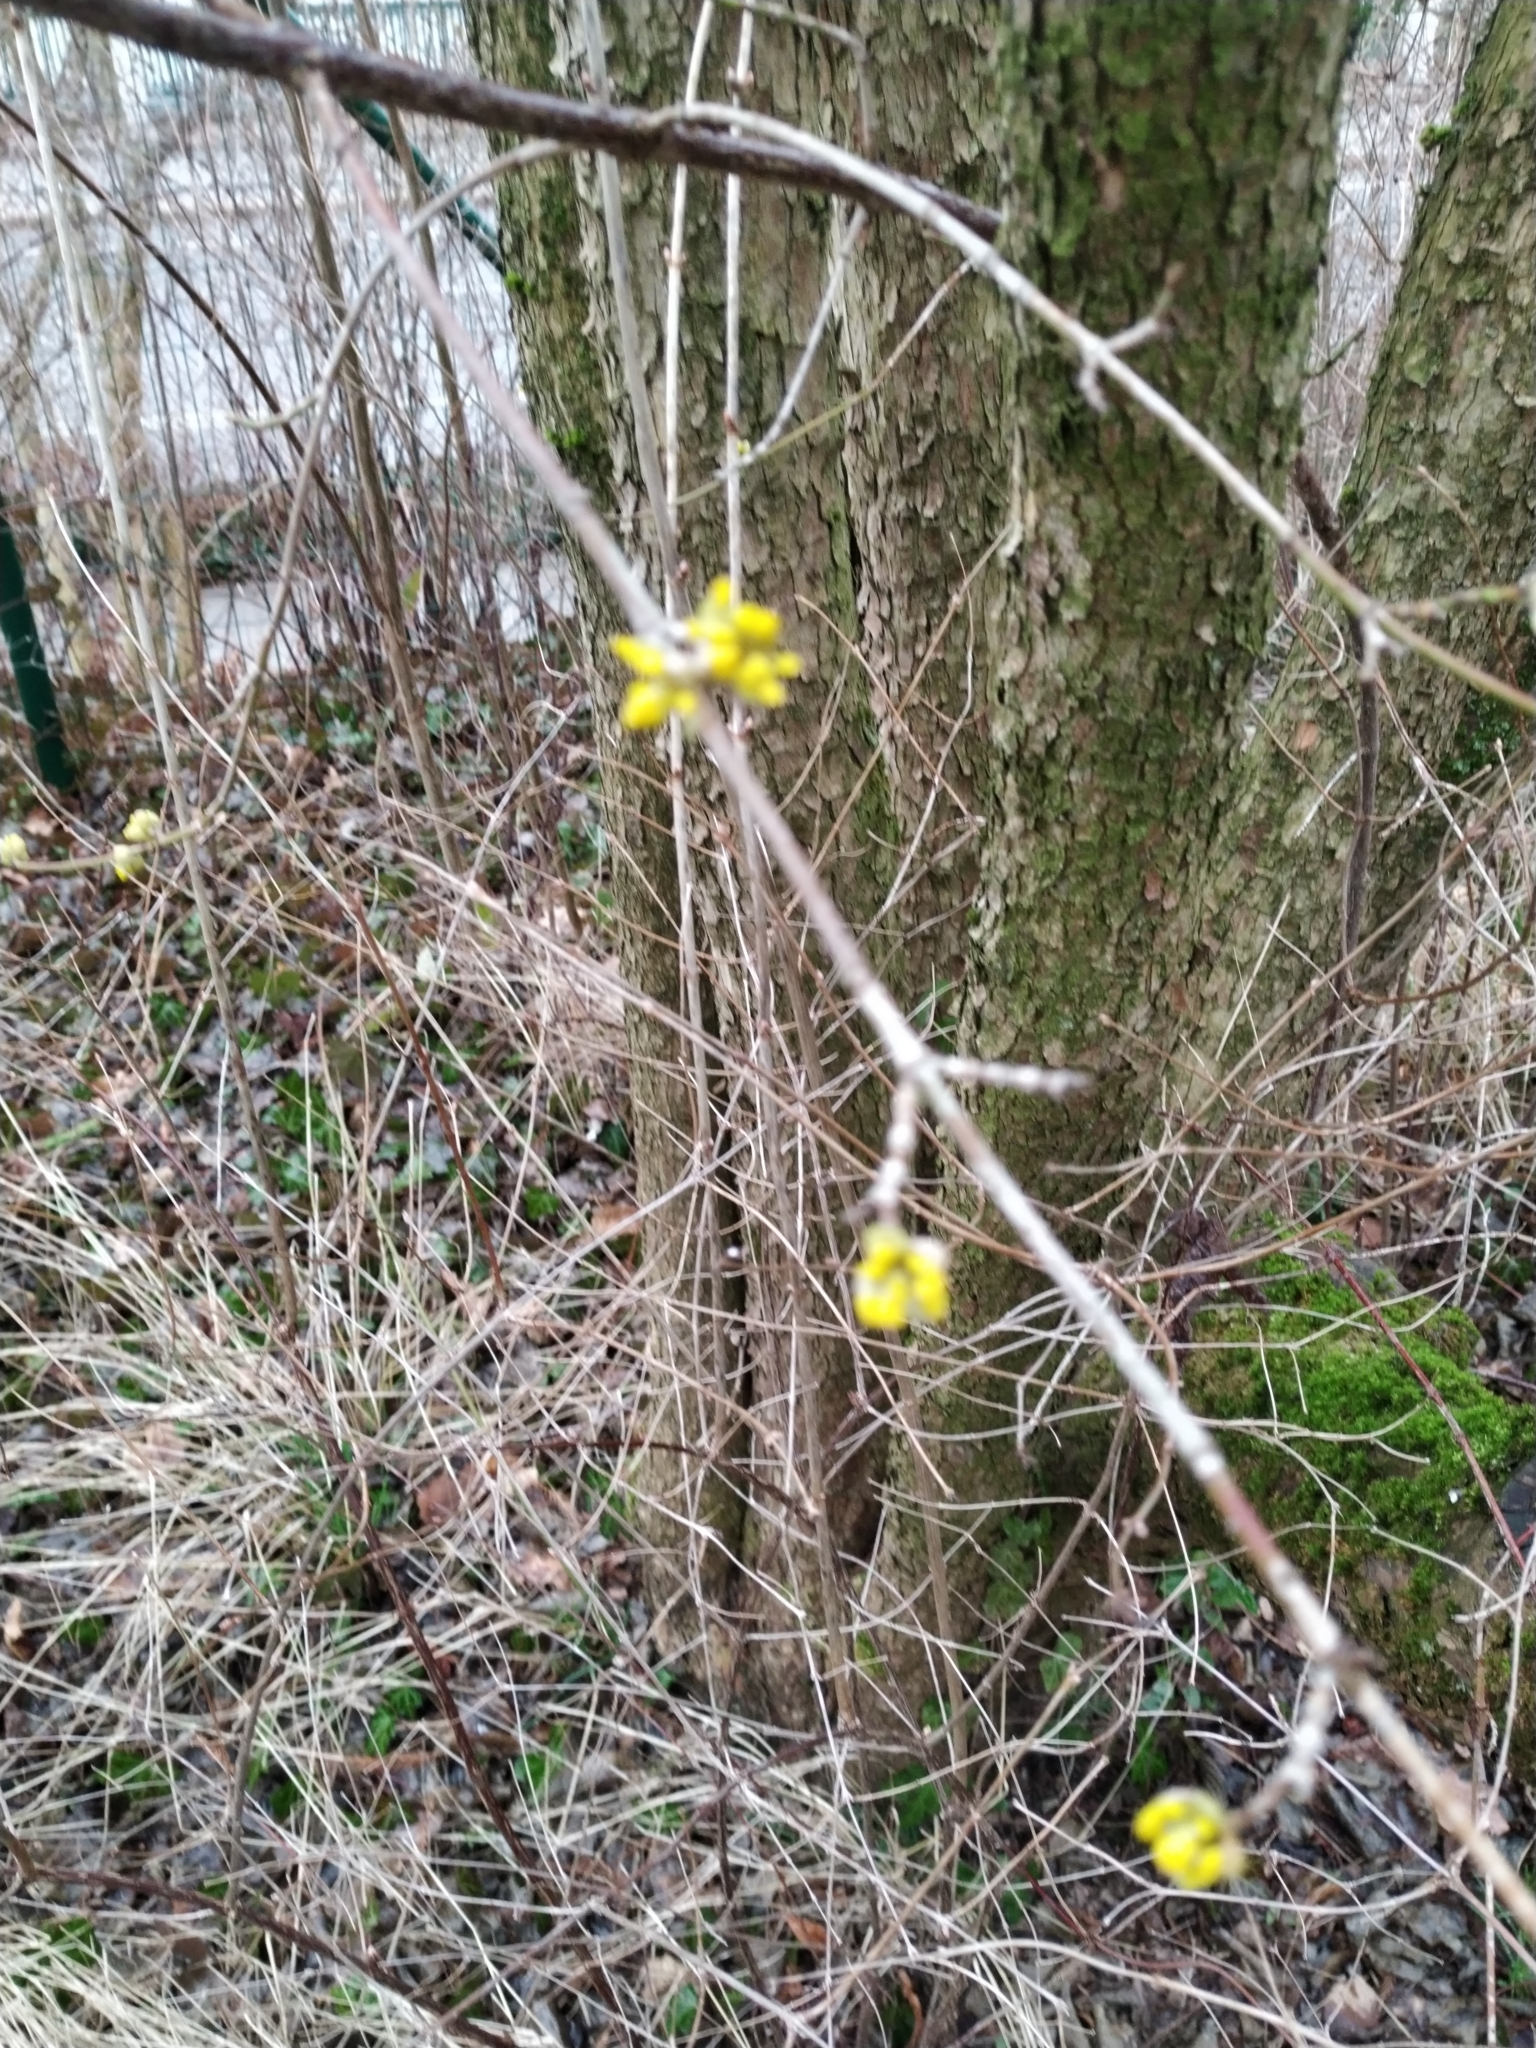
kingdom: Plantae
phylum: Tracheophyta
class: Magnoliopsida
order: Cornales
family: Cornaceae
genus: Cornus
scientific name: Cornus mas
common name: Cornelian-cherry
